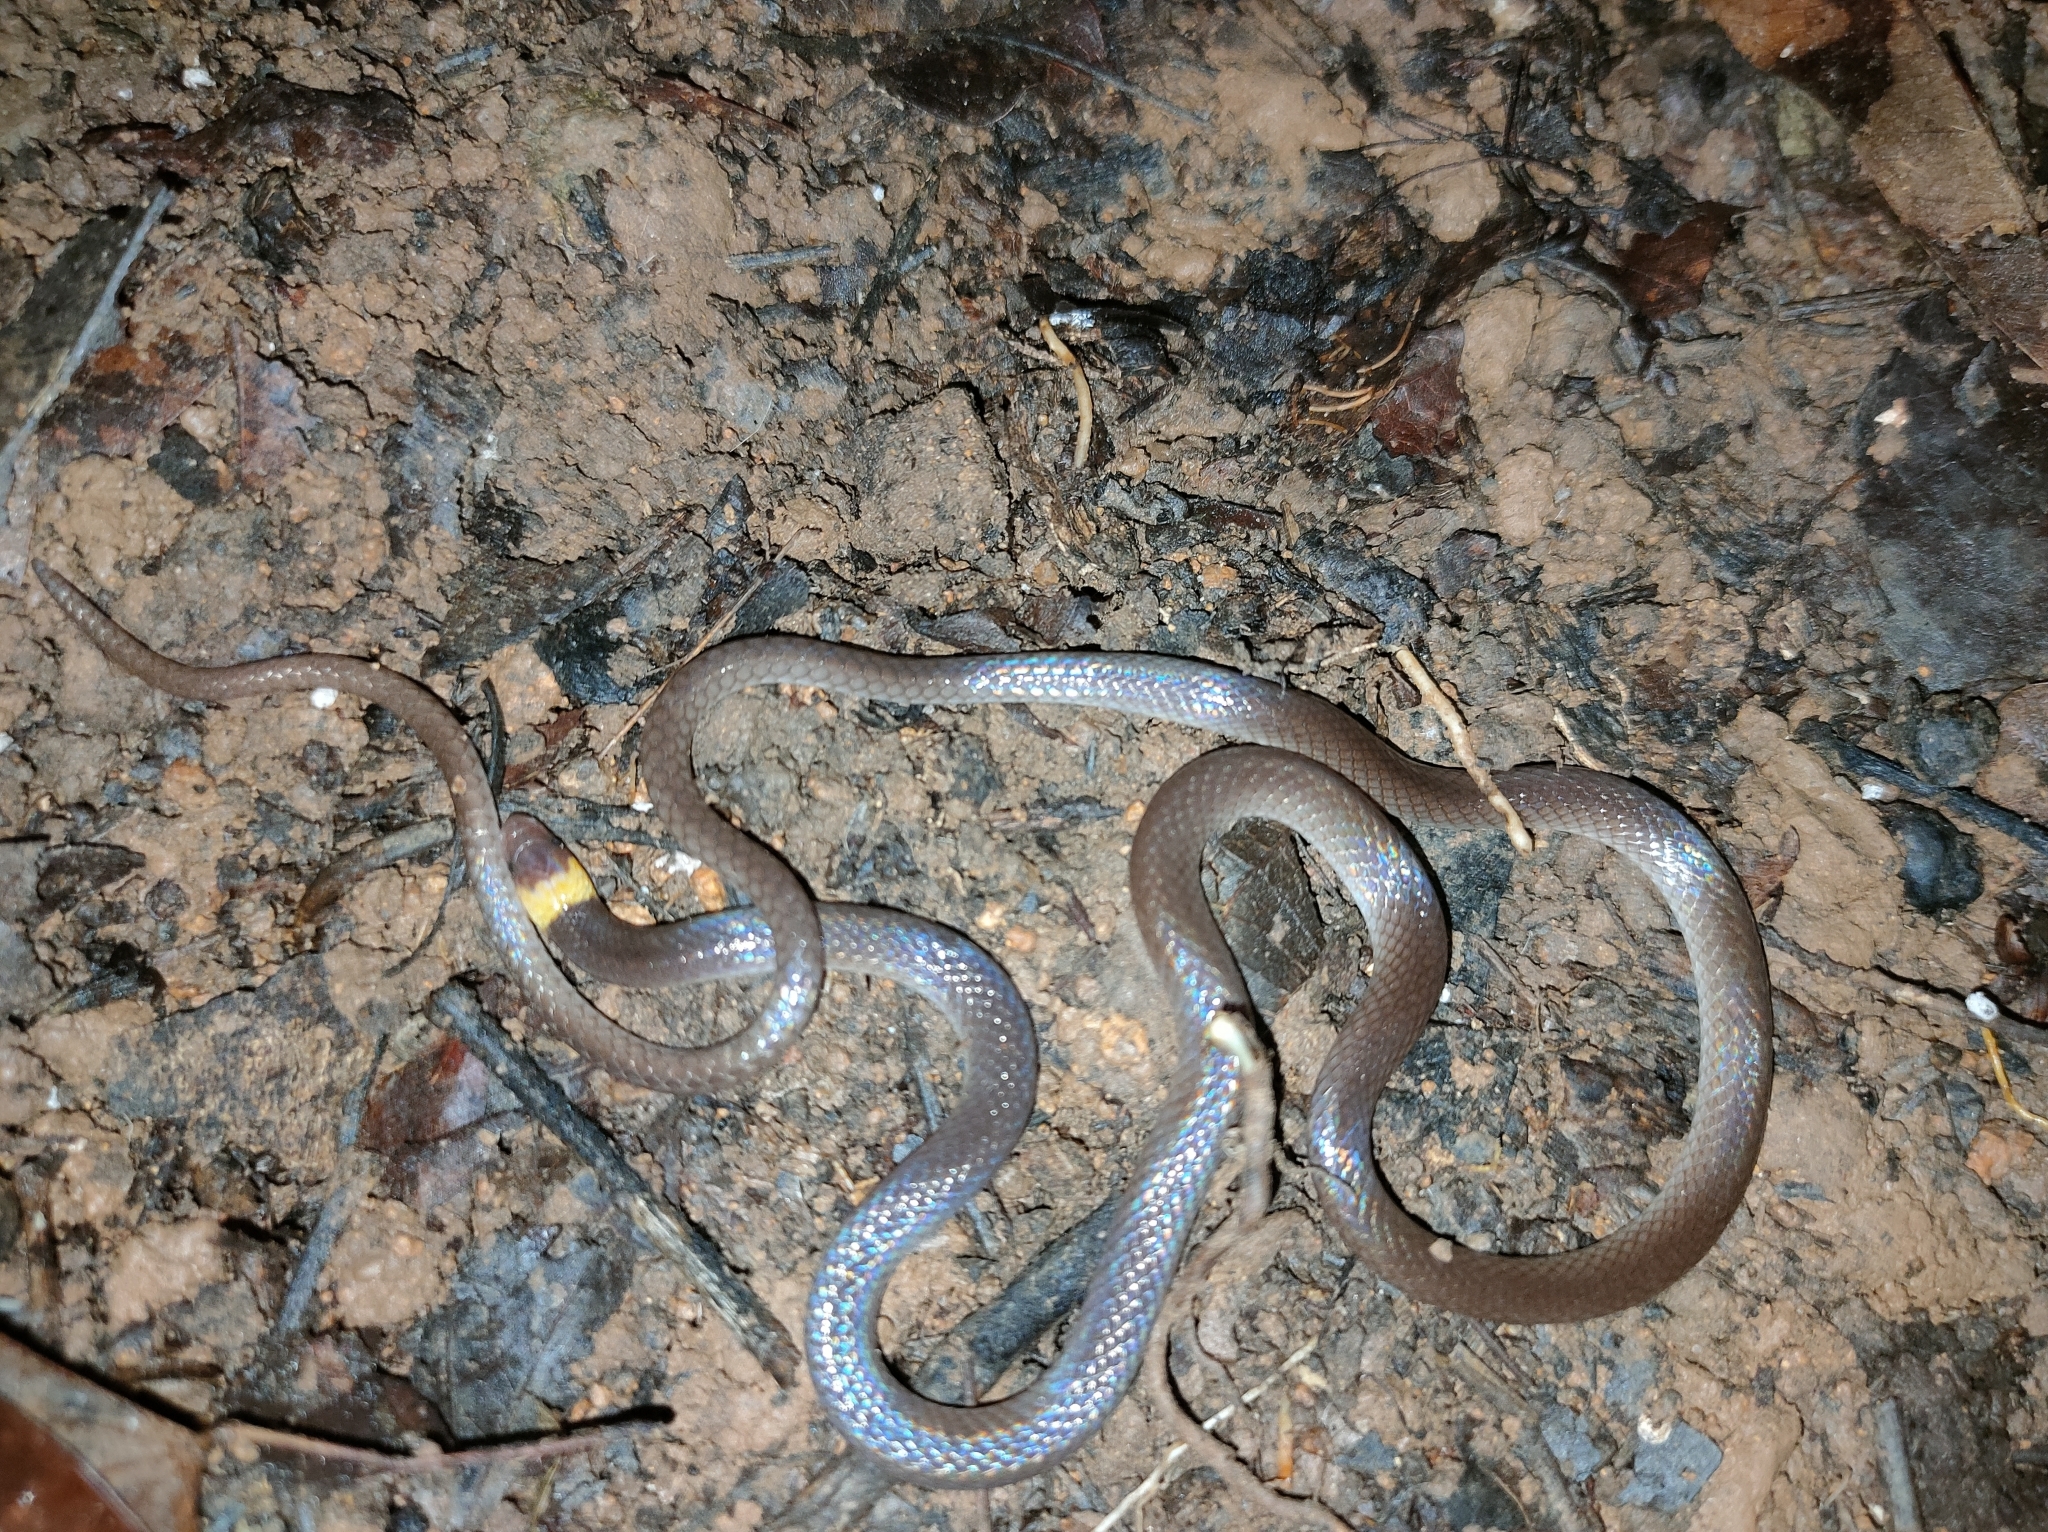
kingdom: Animalia
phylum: Chordata
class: Squamata
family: Colubridae
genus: Enulius
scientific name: Enulius flavitorques
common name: Pacific longtail snake
